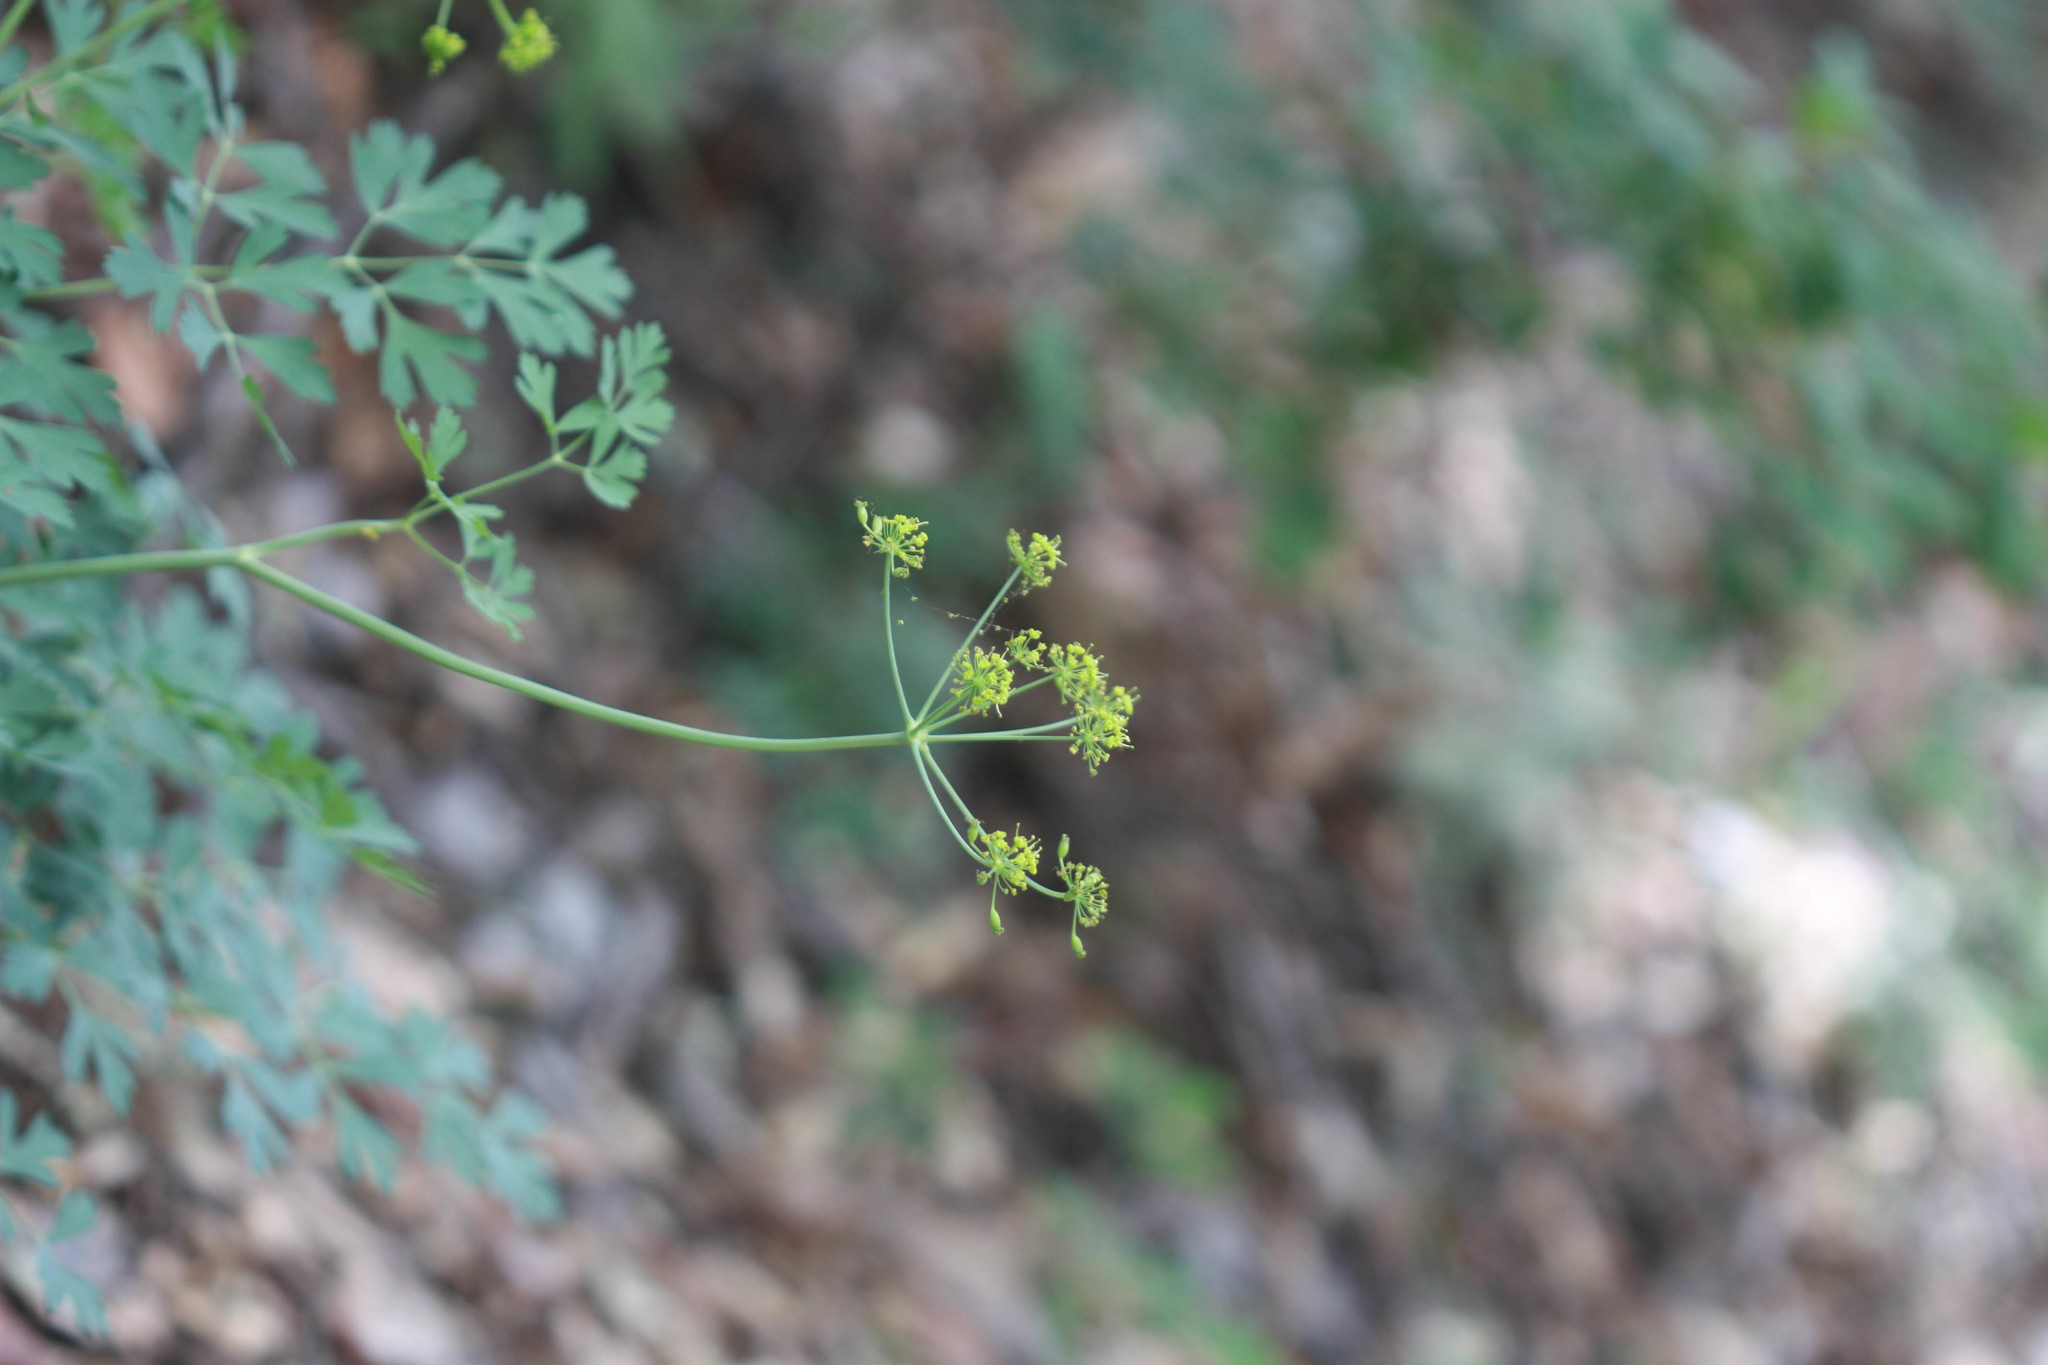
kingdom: Plantae
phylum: Tracheophyta
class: Magnoliopsida
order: Apiales
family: Apiaceae
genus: Lomatium
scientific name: Lomatium californicum
